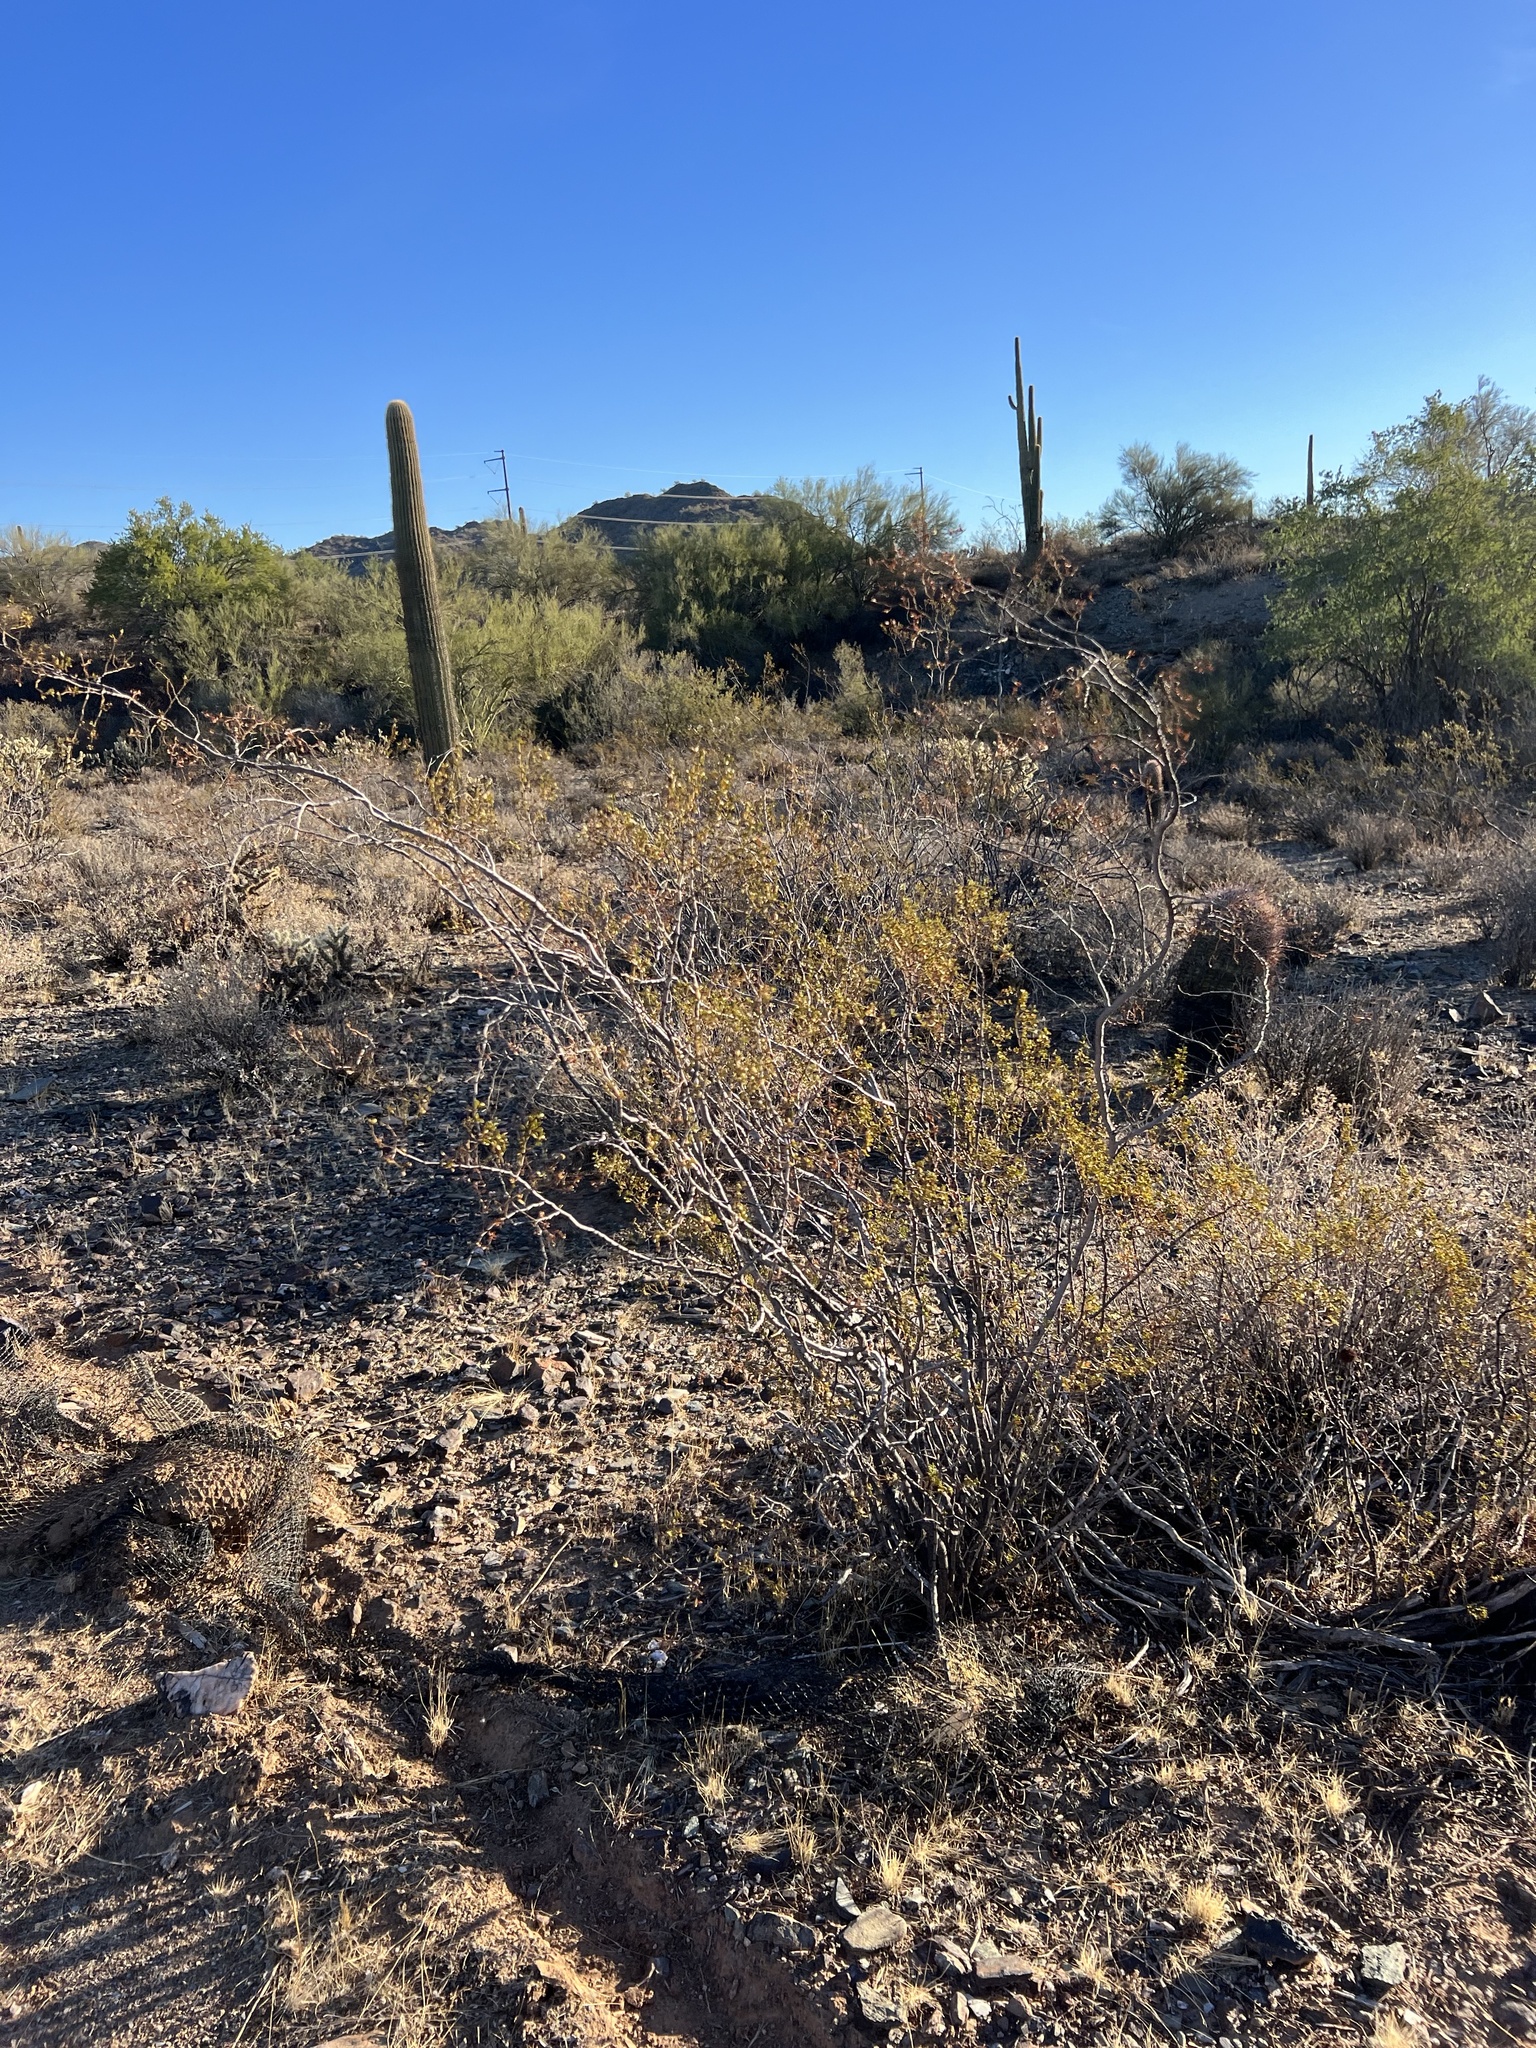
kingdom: Plantae
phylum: Tracheophyta
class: Magnoliopsida
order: Zygophyllales
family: Zygophyllaceae
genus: Larrea
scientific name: Larrea tridentata
